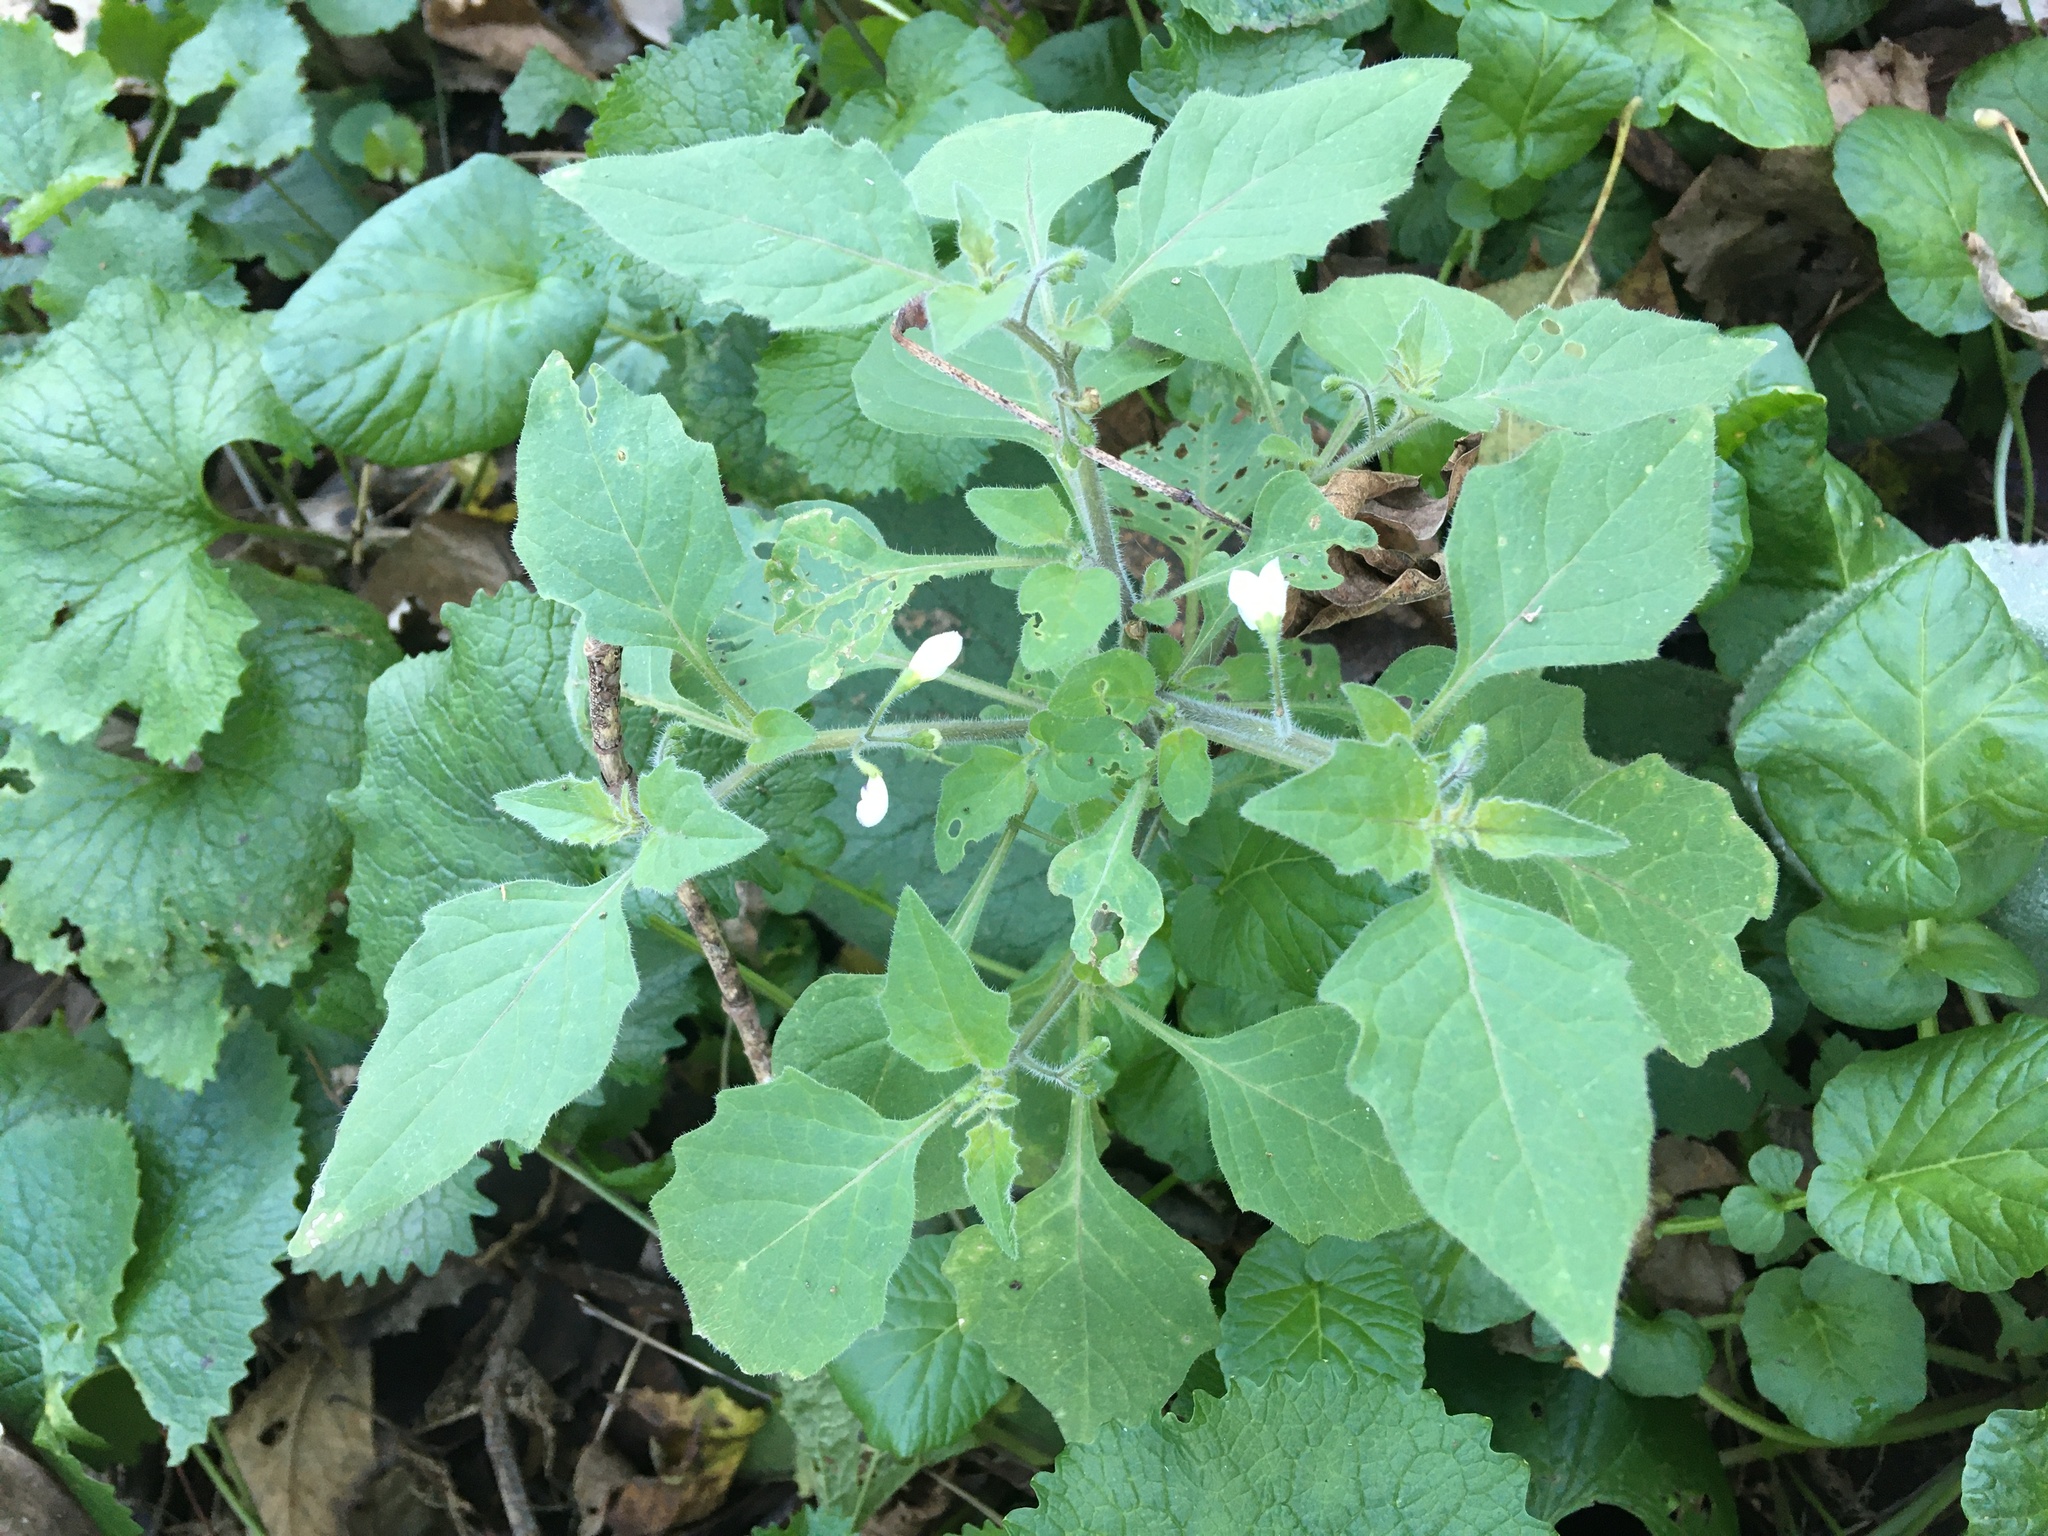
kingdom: Plantae
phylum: Tracheophyta
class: Magnoliopsida
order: Solanales
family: Solanaceae
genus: Solanum
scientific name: Solanum nigrum
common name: Black nightshade
